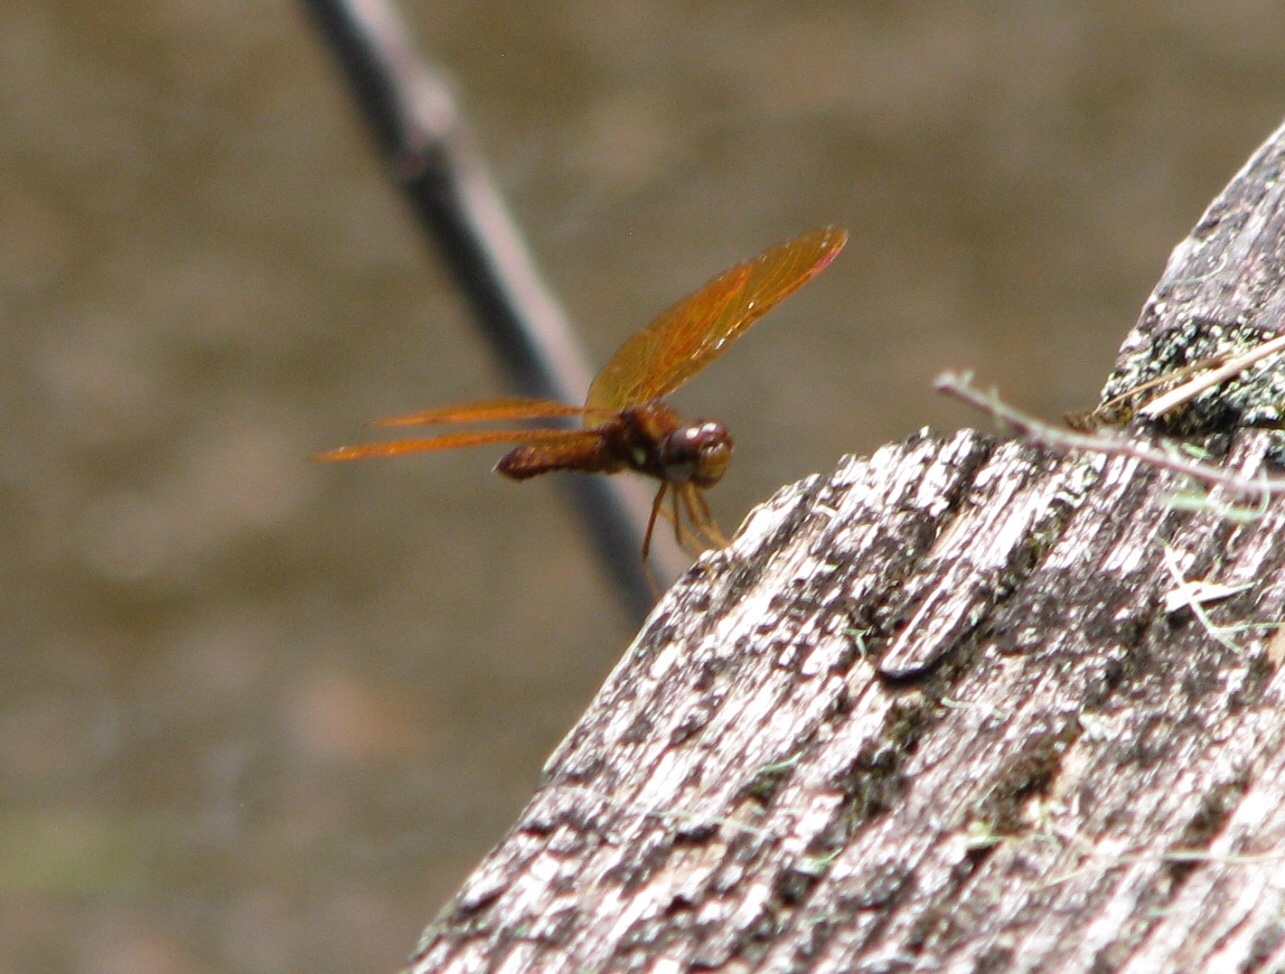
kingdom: Animalia
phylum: Arthropoda
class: Insecta
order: Odonata
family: Libellulidae
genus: Perithemis
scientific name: Perithemis tenera
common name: Eastern amberwing
